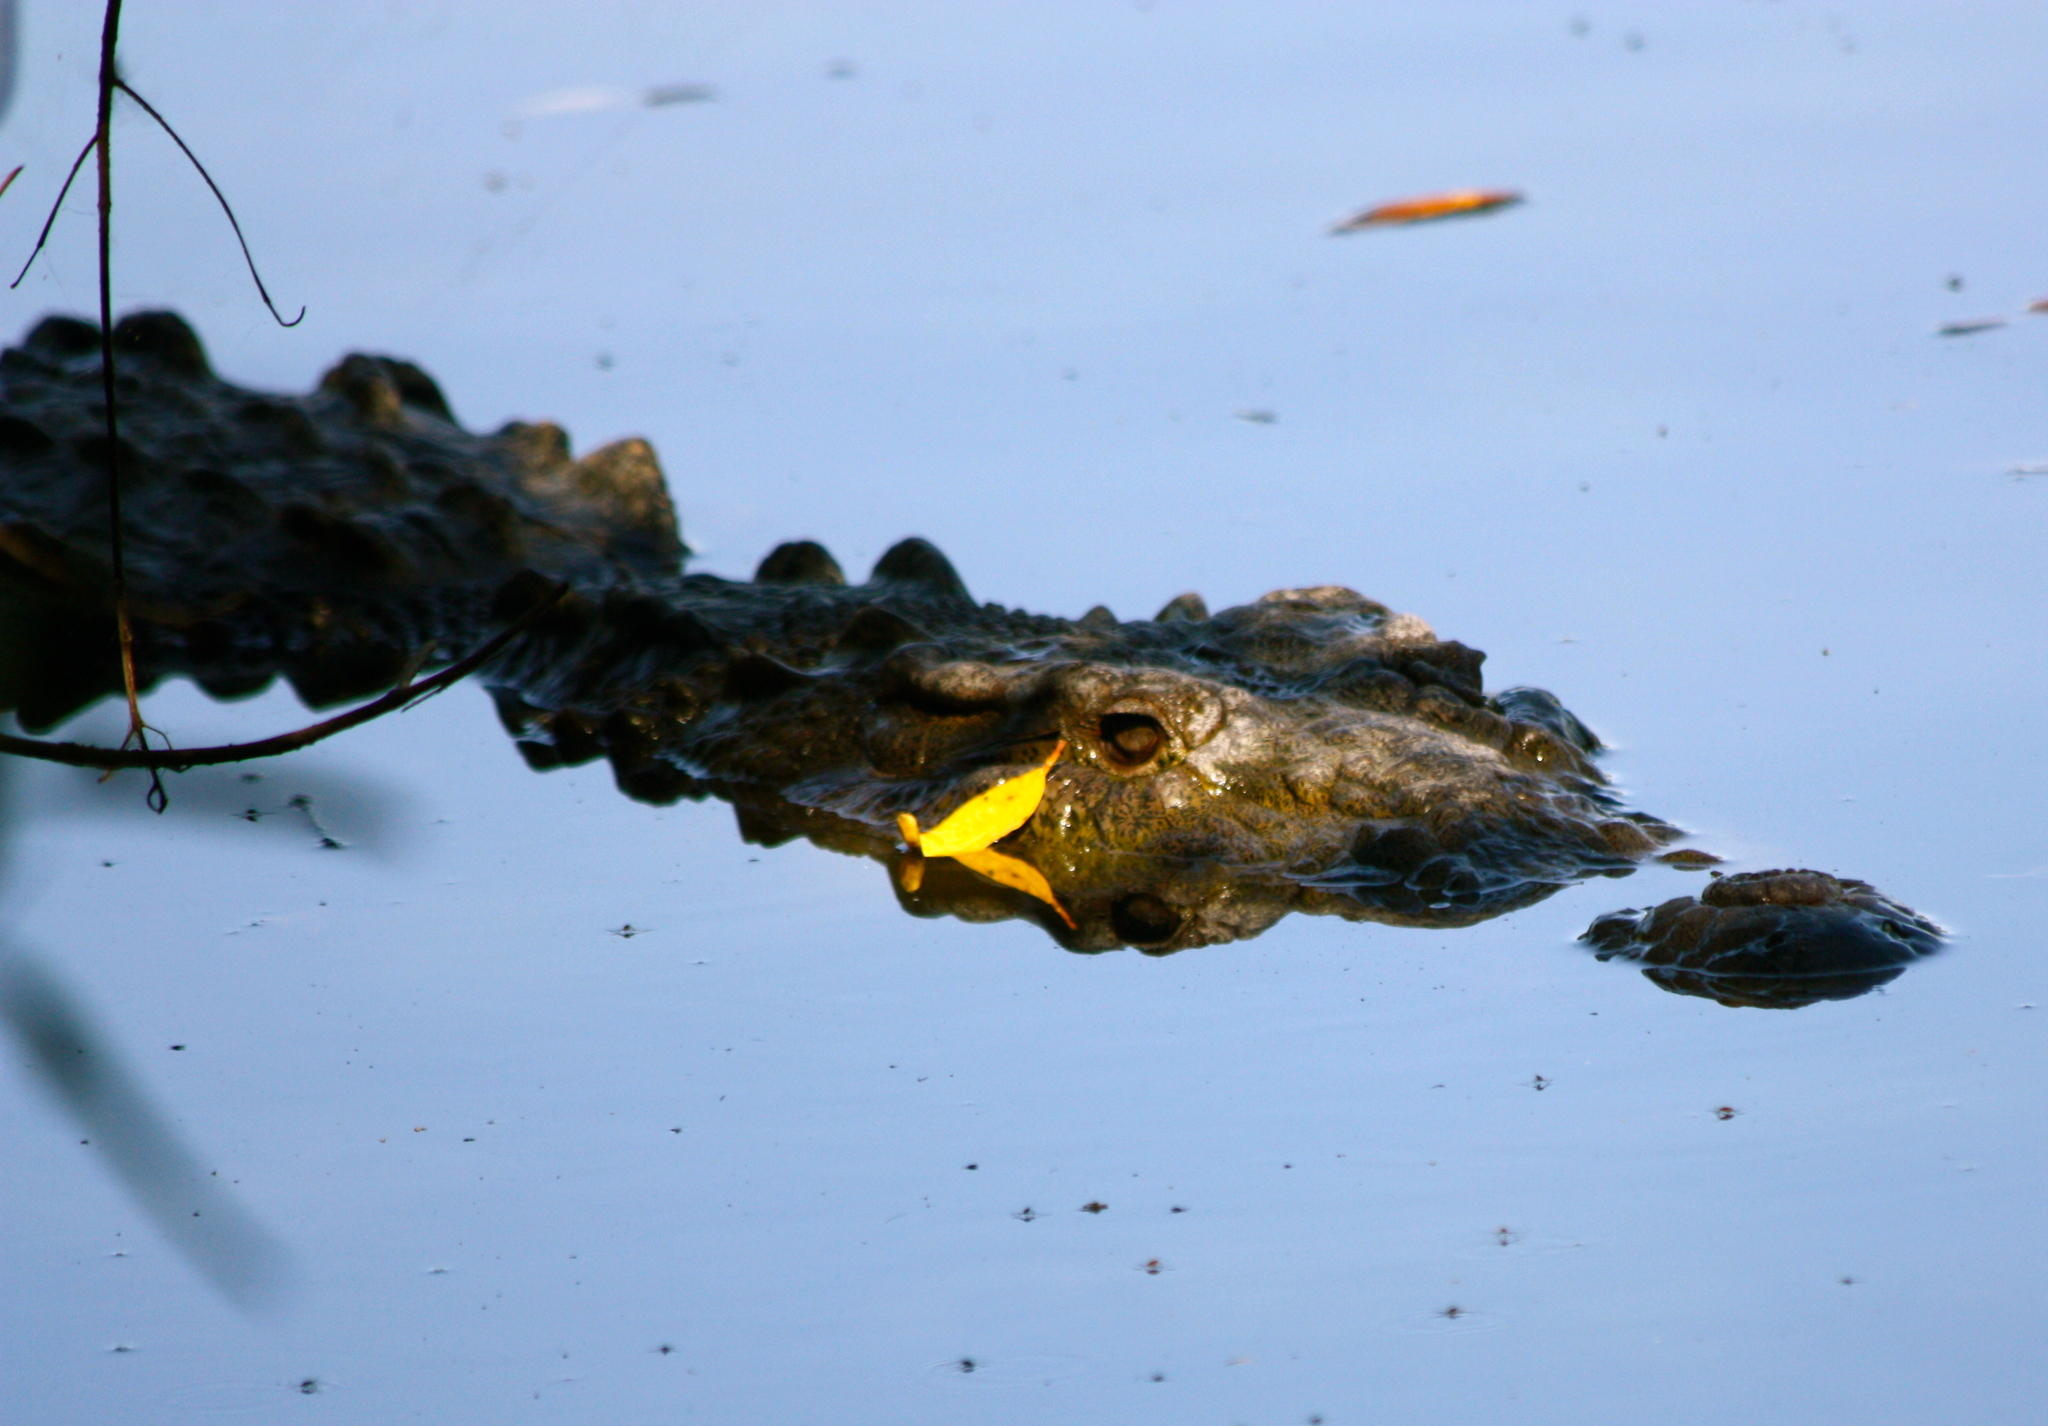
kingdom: Animalia
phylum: Chordata
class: Crocodylia
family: Crocodylidae
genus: Crocodylus
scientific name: Crocodylus acutus
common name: American crocodile
